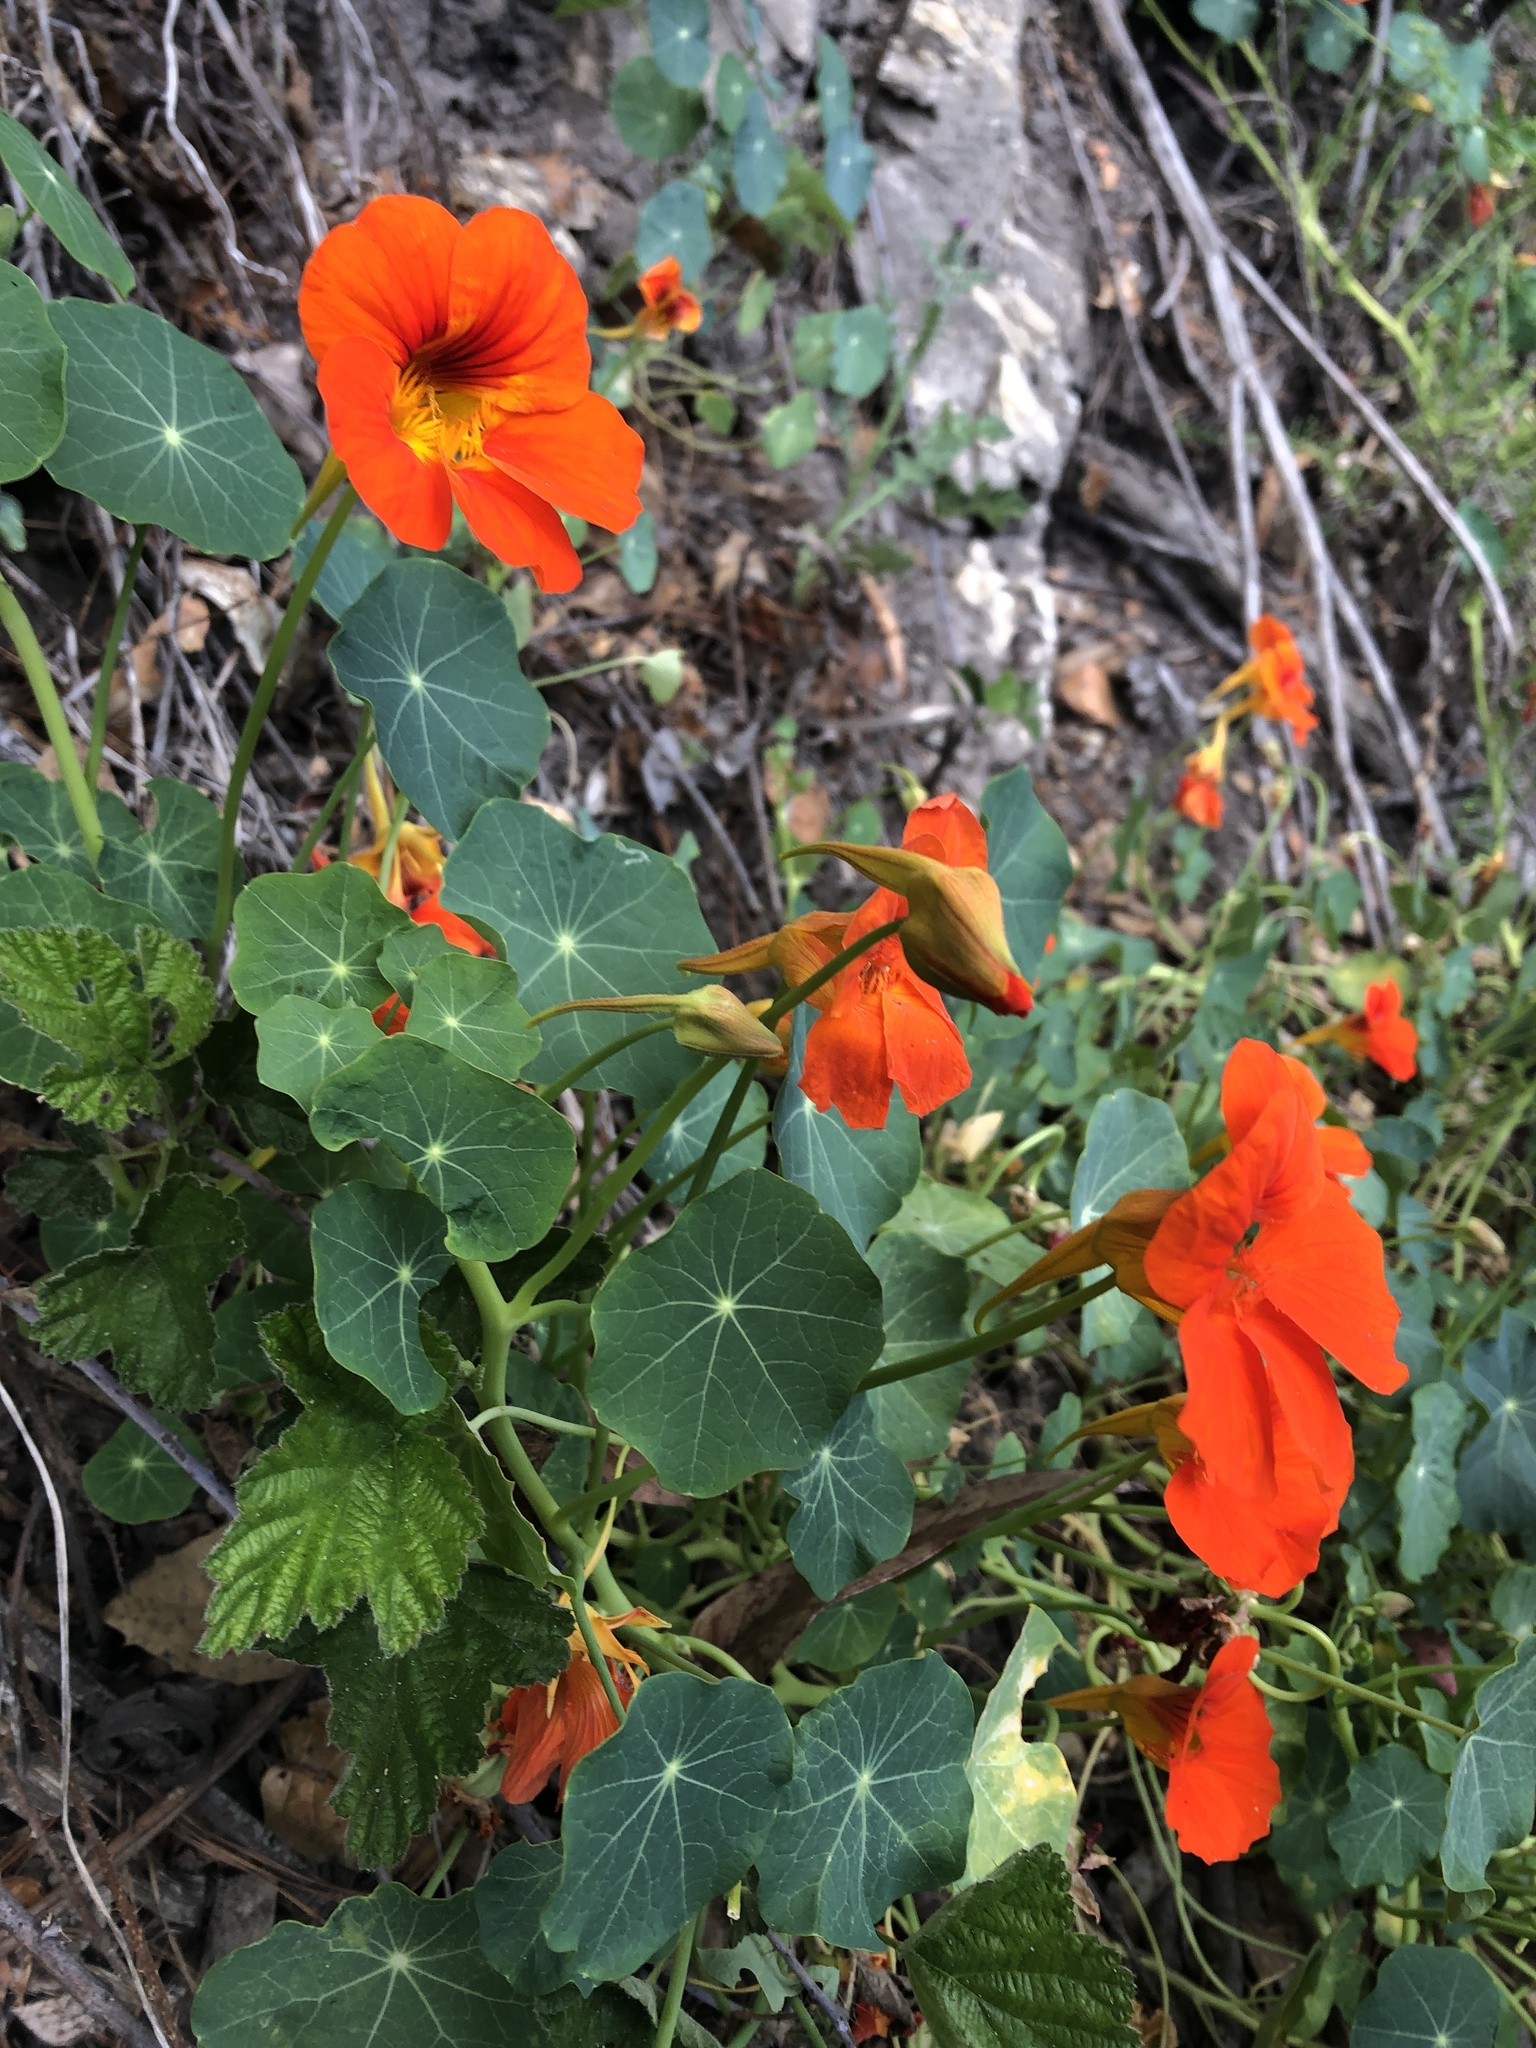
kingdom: Plantae
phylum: Tracheophyta
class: Magnoliopsida
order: Brassicales
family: Tropaeolaceae
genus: Tropaeolum
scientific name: Tropaeolum majus
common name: Nasturtium
